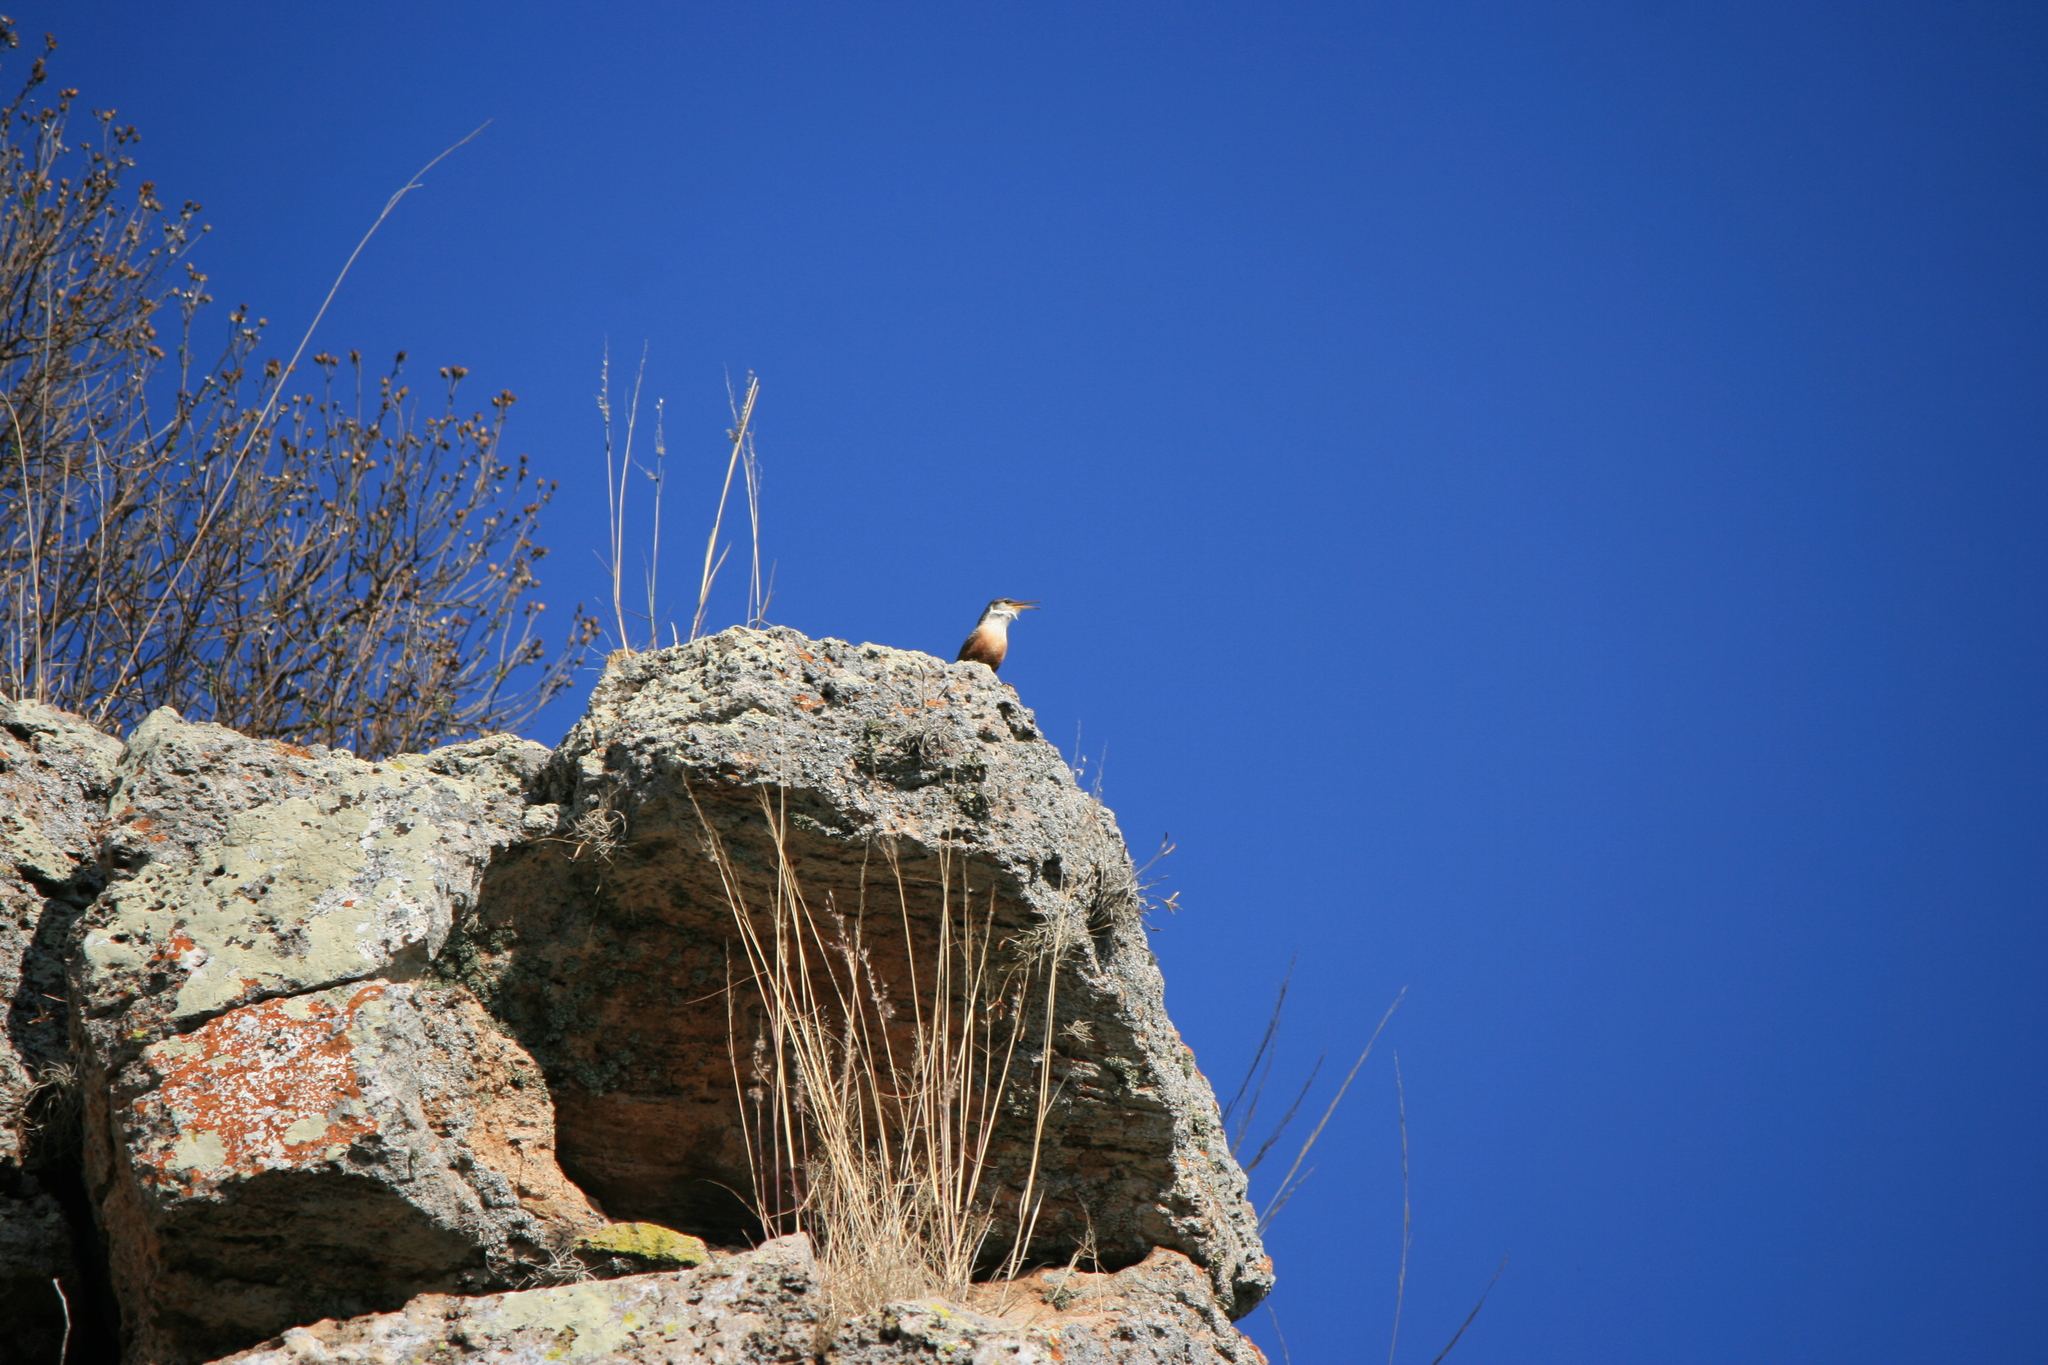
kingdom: Animalia
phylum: Chordata
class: Aves
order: Passeriformes
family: Troglodytidae
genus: Catherpes
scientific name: Catherpes mexicanus
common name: Canyon wren
